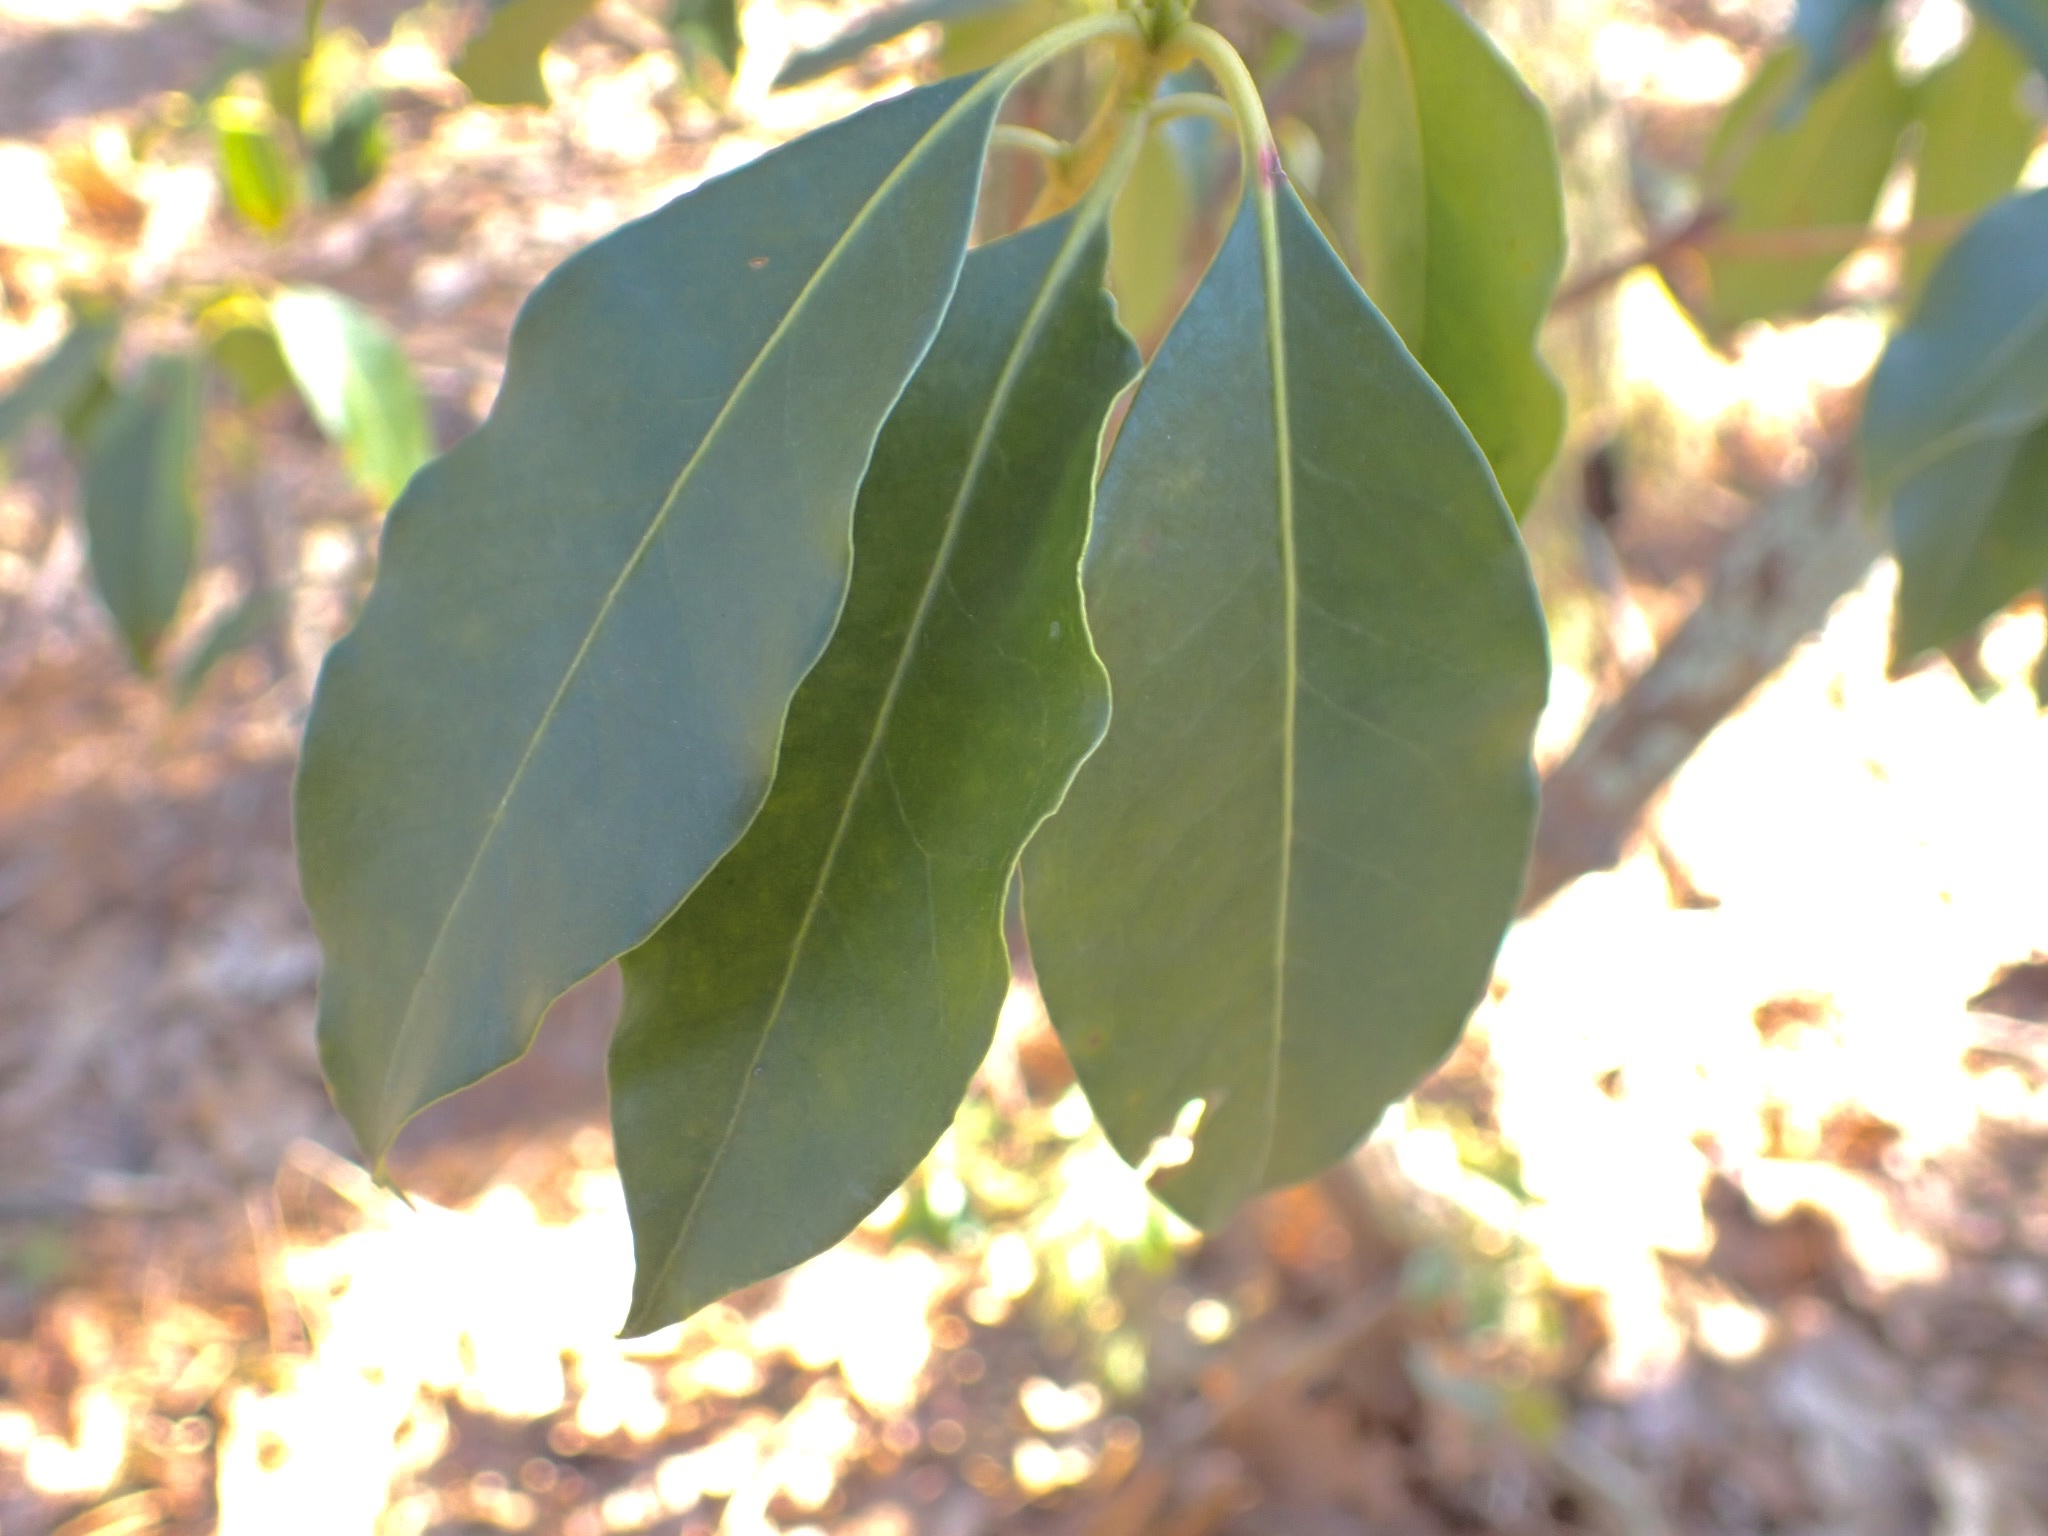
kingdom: Plantae
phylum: Tracheophyta
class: Magnoliopsida
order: Ericales
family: Ericaceae
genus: Kalmia
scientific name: Kalmia latifolia
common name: Mountain-laurel
